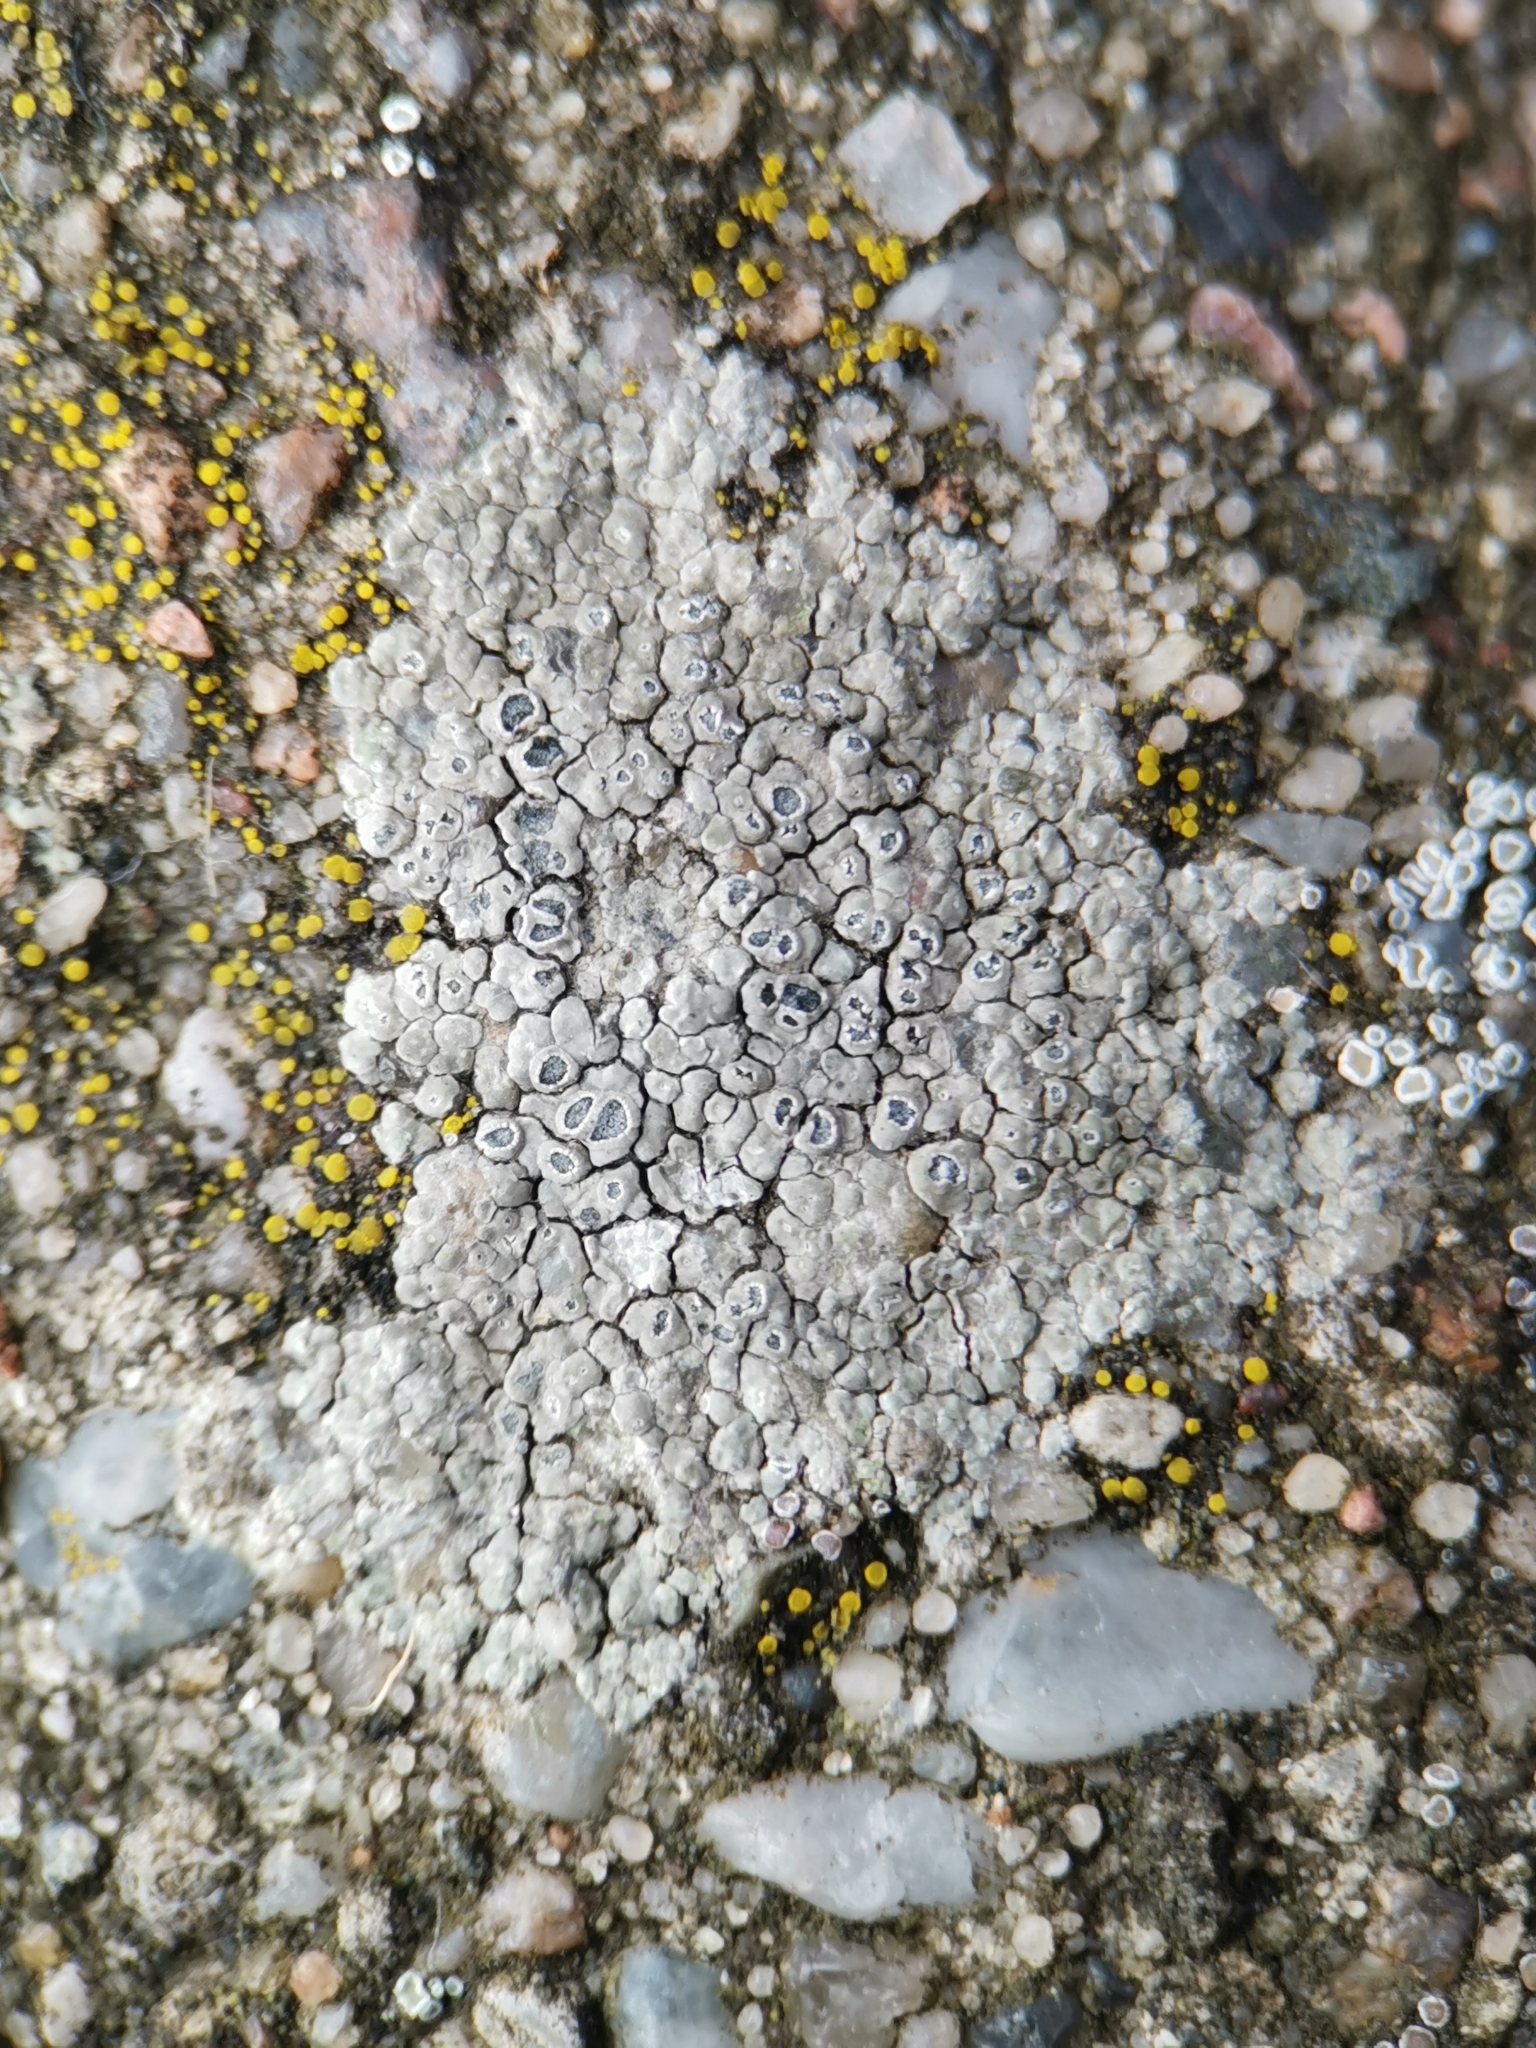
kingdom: Fungi
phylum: Ascomycota
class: Lecanoromycetes
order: Pertusariales
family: Megasporaceae
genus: Circinaria
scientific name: Circinaria contorta
